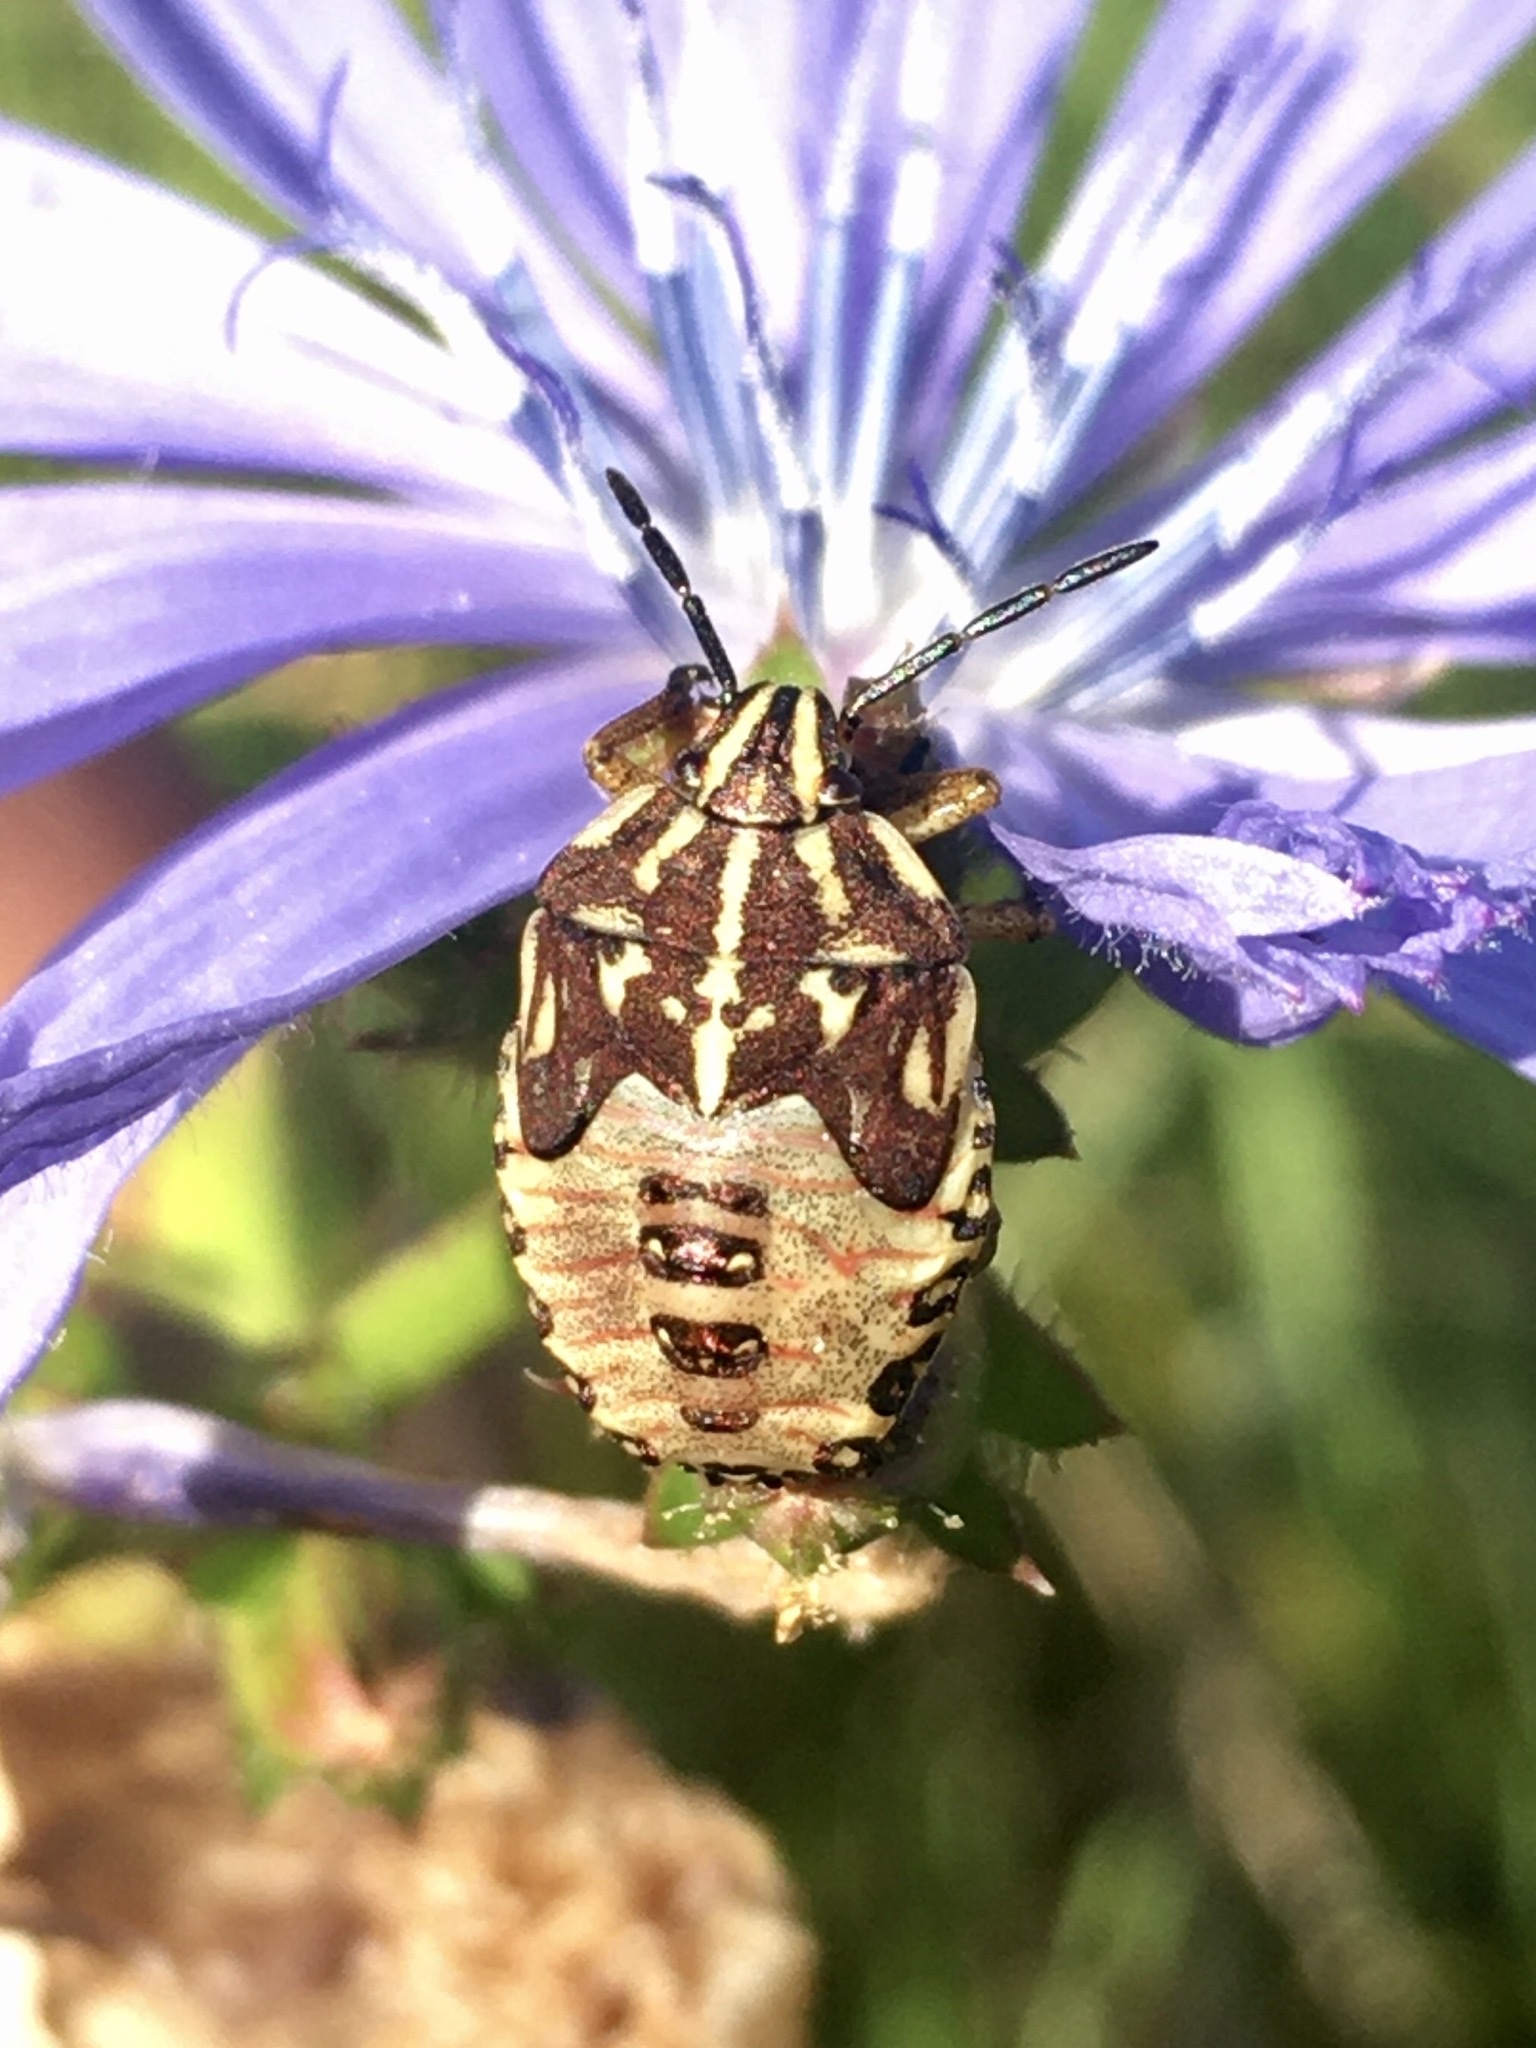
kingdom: Animalia
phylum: Arthropoda
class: Insecta
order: Hemiptera
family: Pentatomidae
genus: Carpocoris
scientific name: Carpocoris purpureipennis
